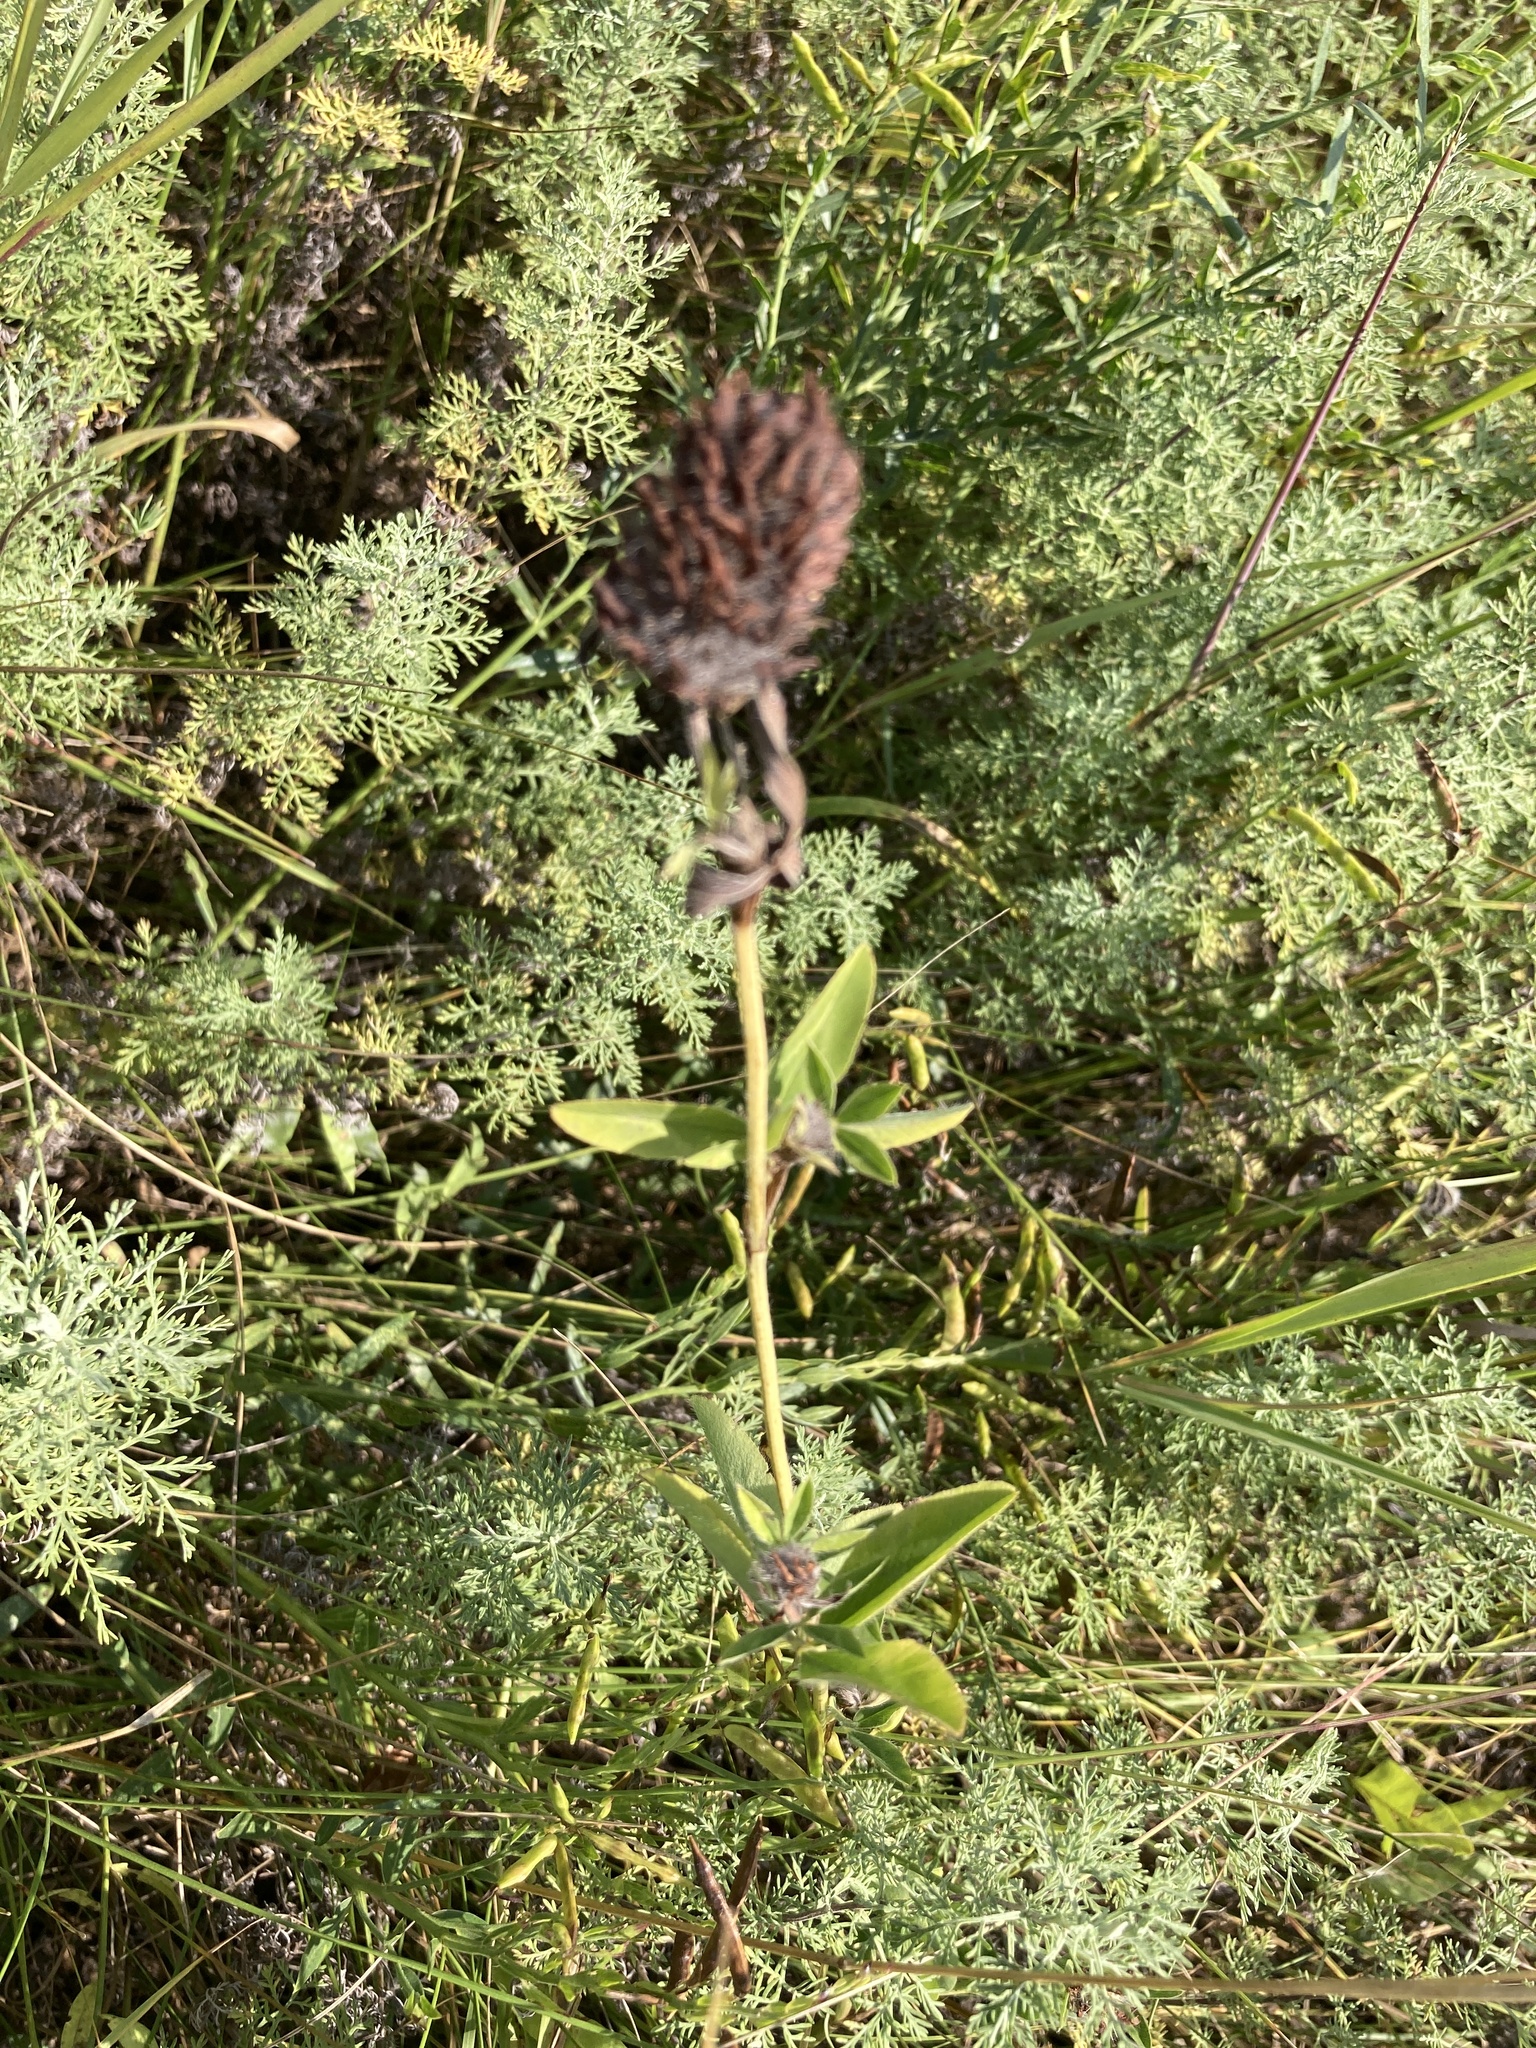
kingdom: Plantae
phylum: Tracheophyta
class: Magnoliopsida
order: Fabales
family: Fabaceae
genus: Trifolium
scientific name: Trifolium pratense
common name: Red clover
